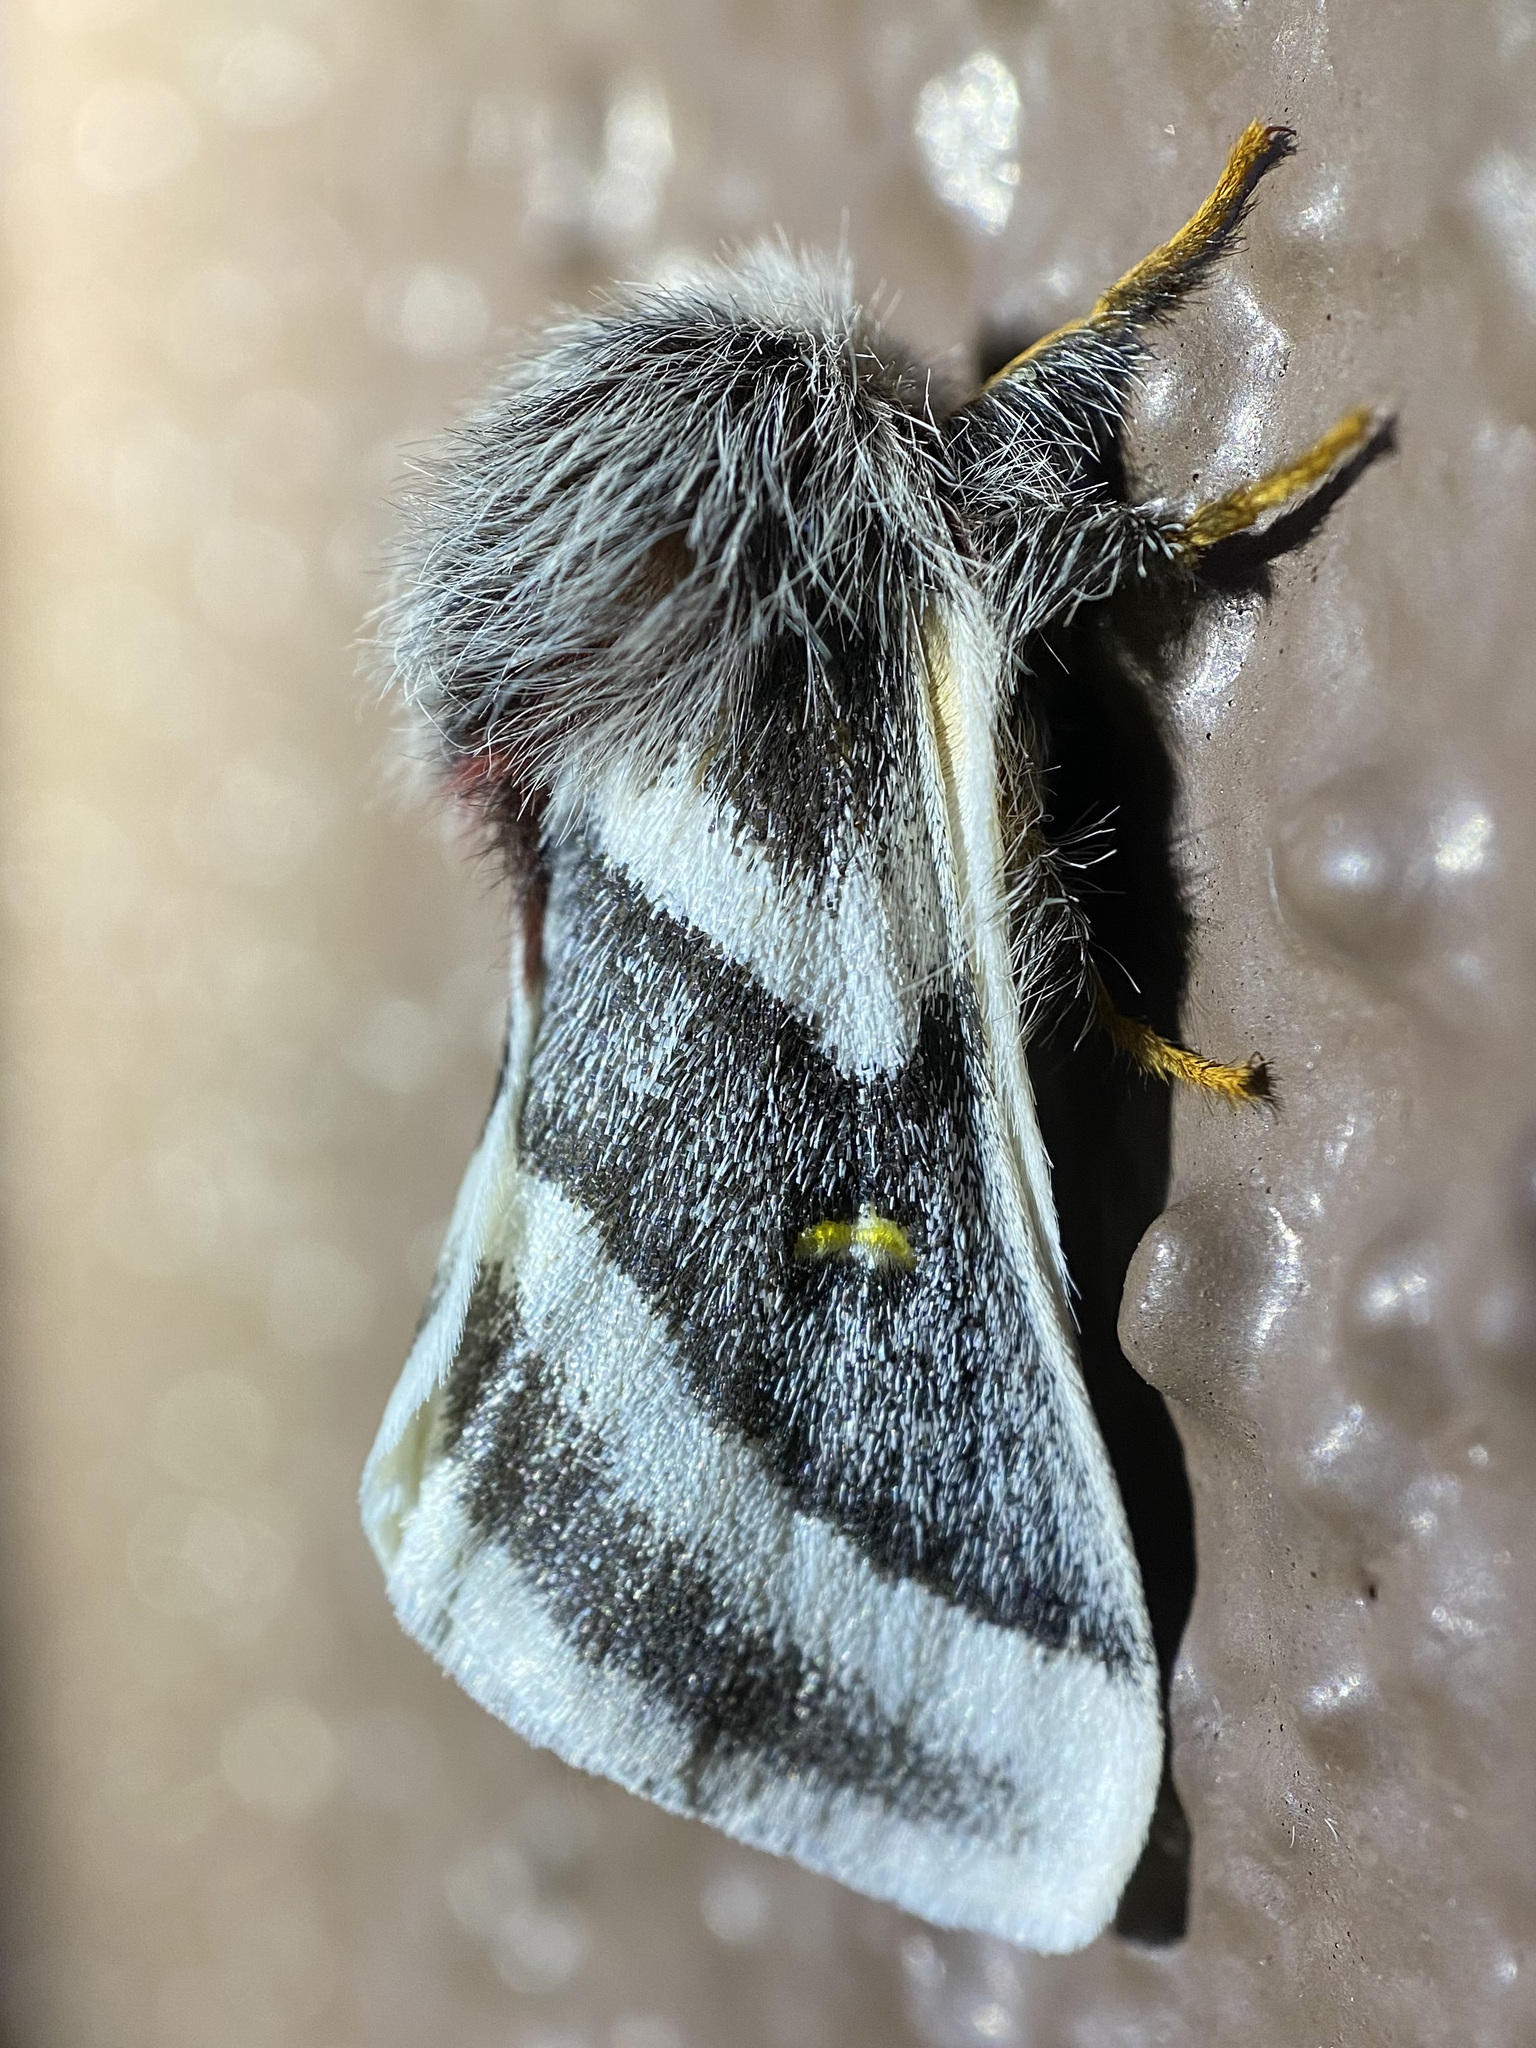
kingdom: Animalia
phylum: Arthropoda
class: Insecta
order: Lepidoptera
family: Saturniidae
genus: Hemileuca
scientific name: Hemileuca tricolor
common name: Tricolor buckmoth
